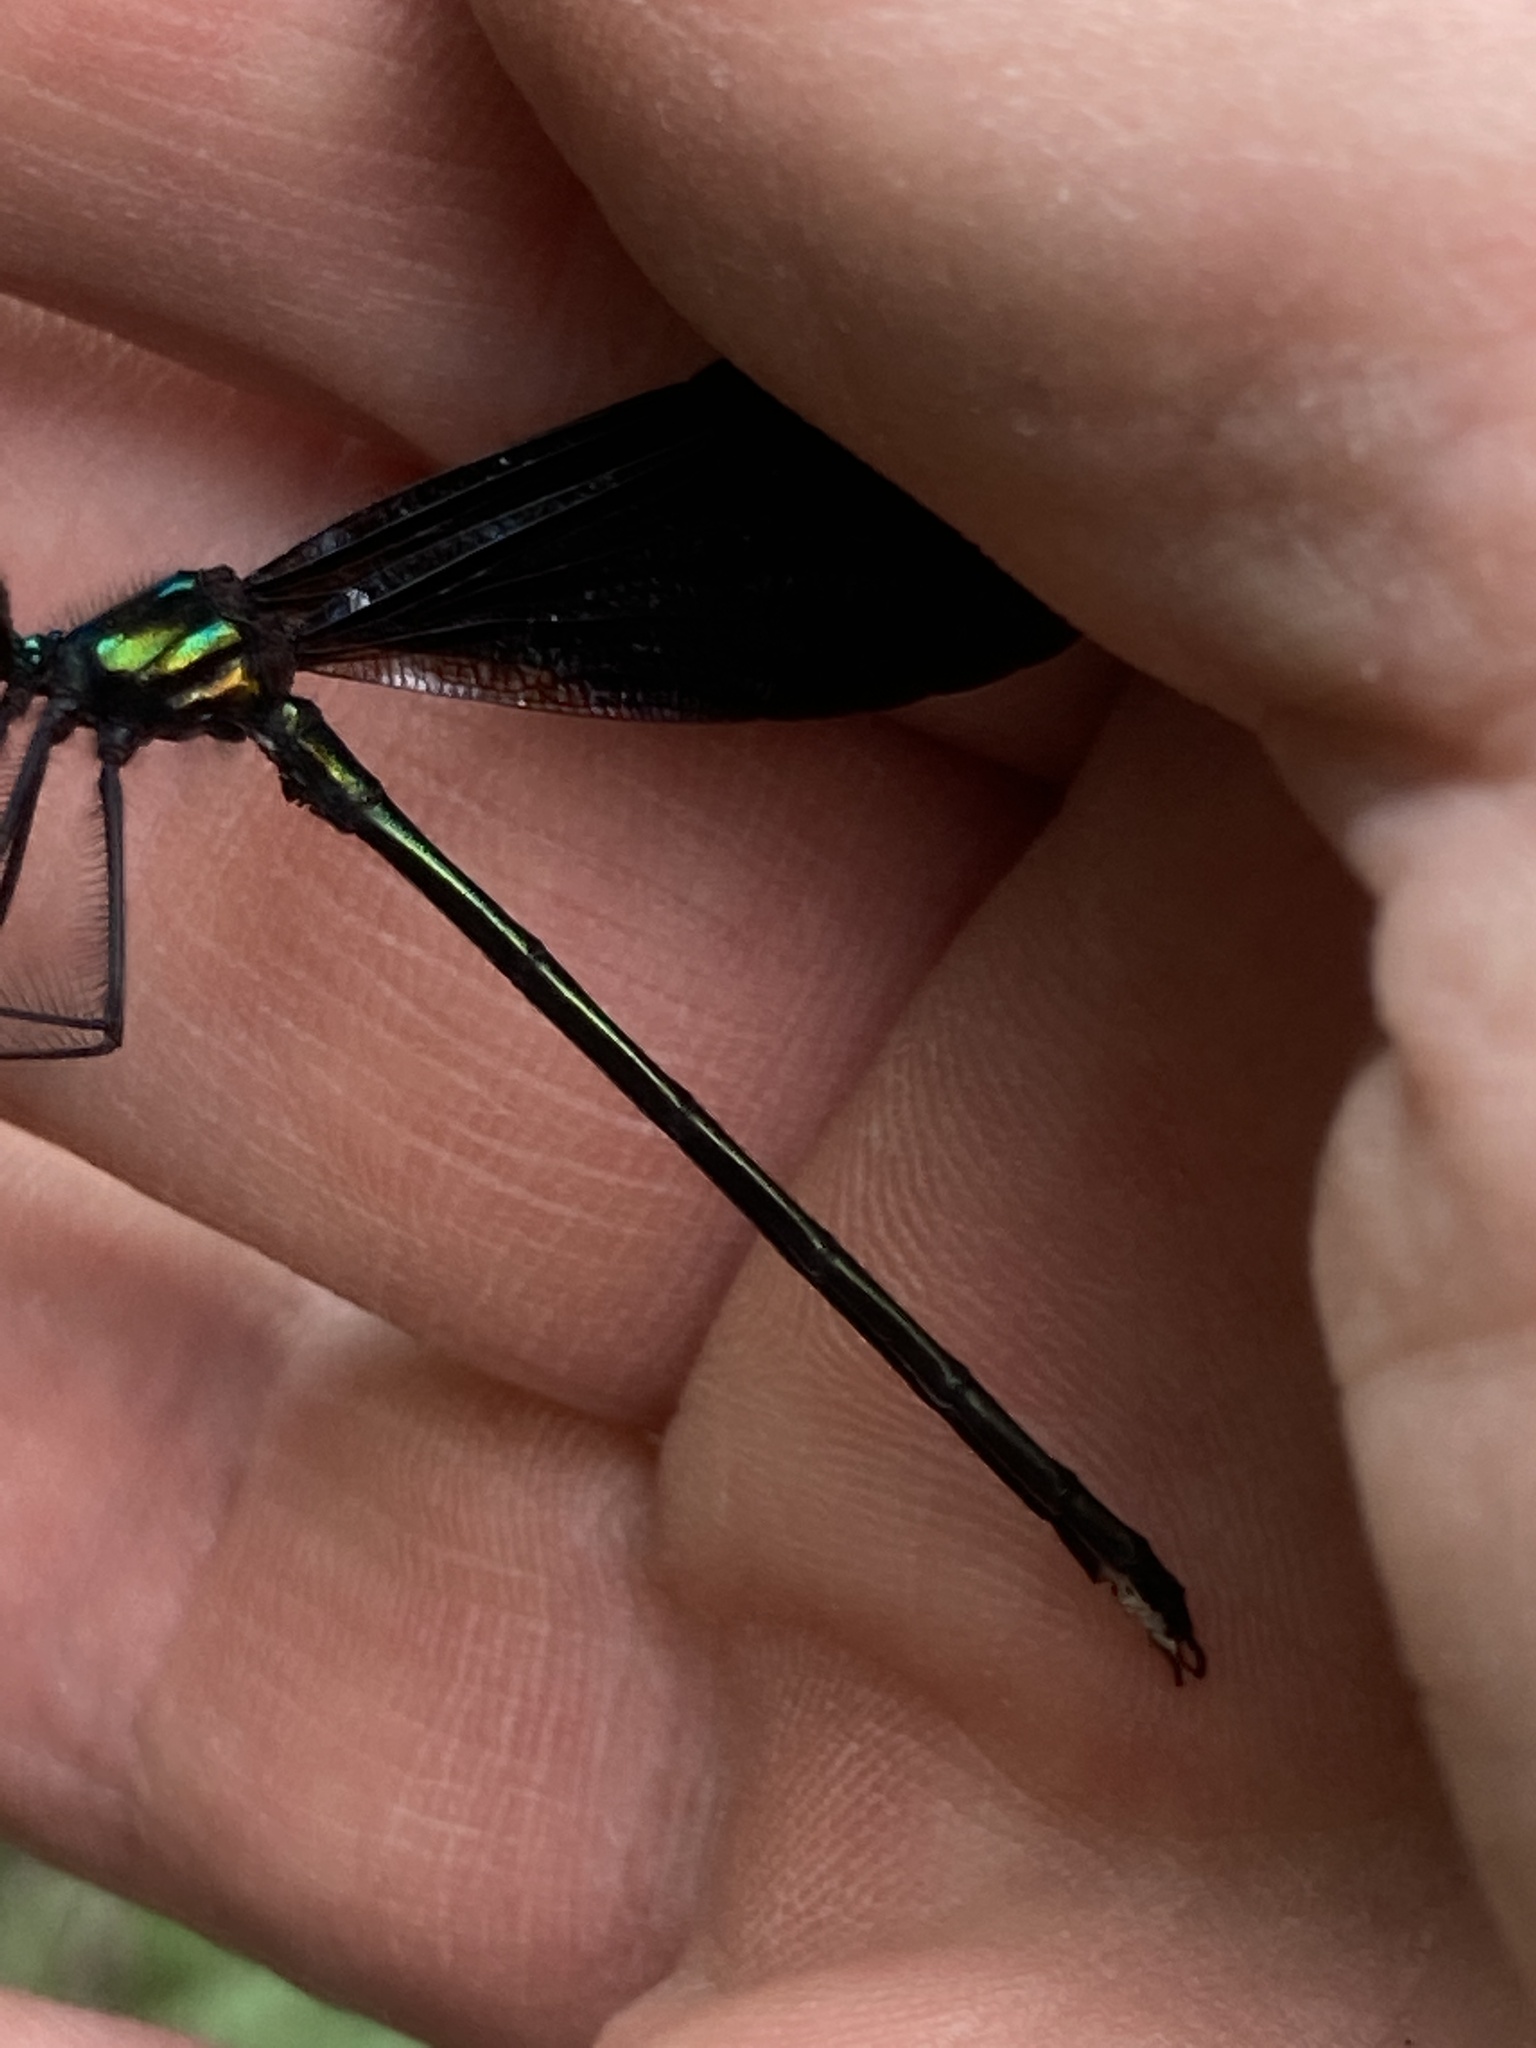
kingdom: Animalia
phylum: Arthropoda
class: Insecta
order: Odonata
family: Calopterygidae
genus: Calopteryx
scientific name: Calopteryx maculata
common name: Ebony jewelwing
